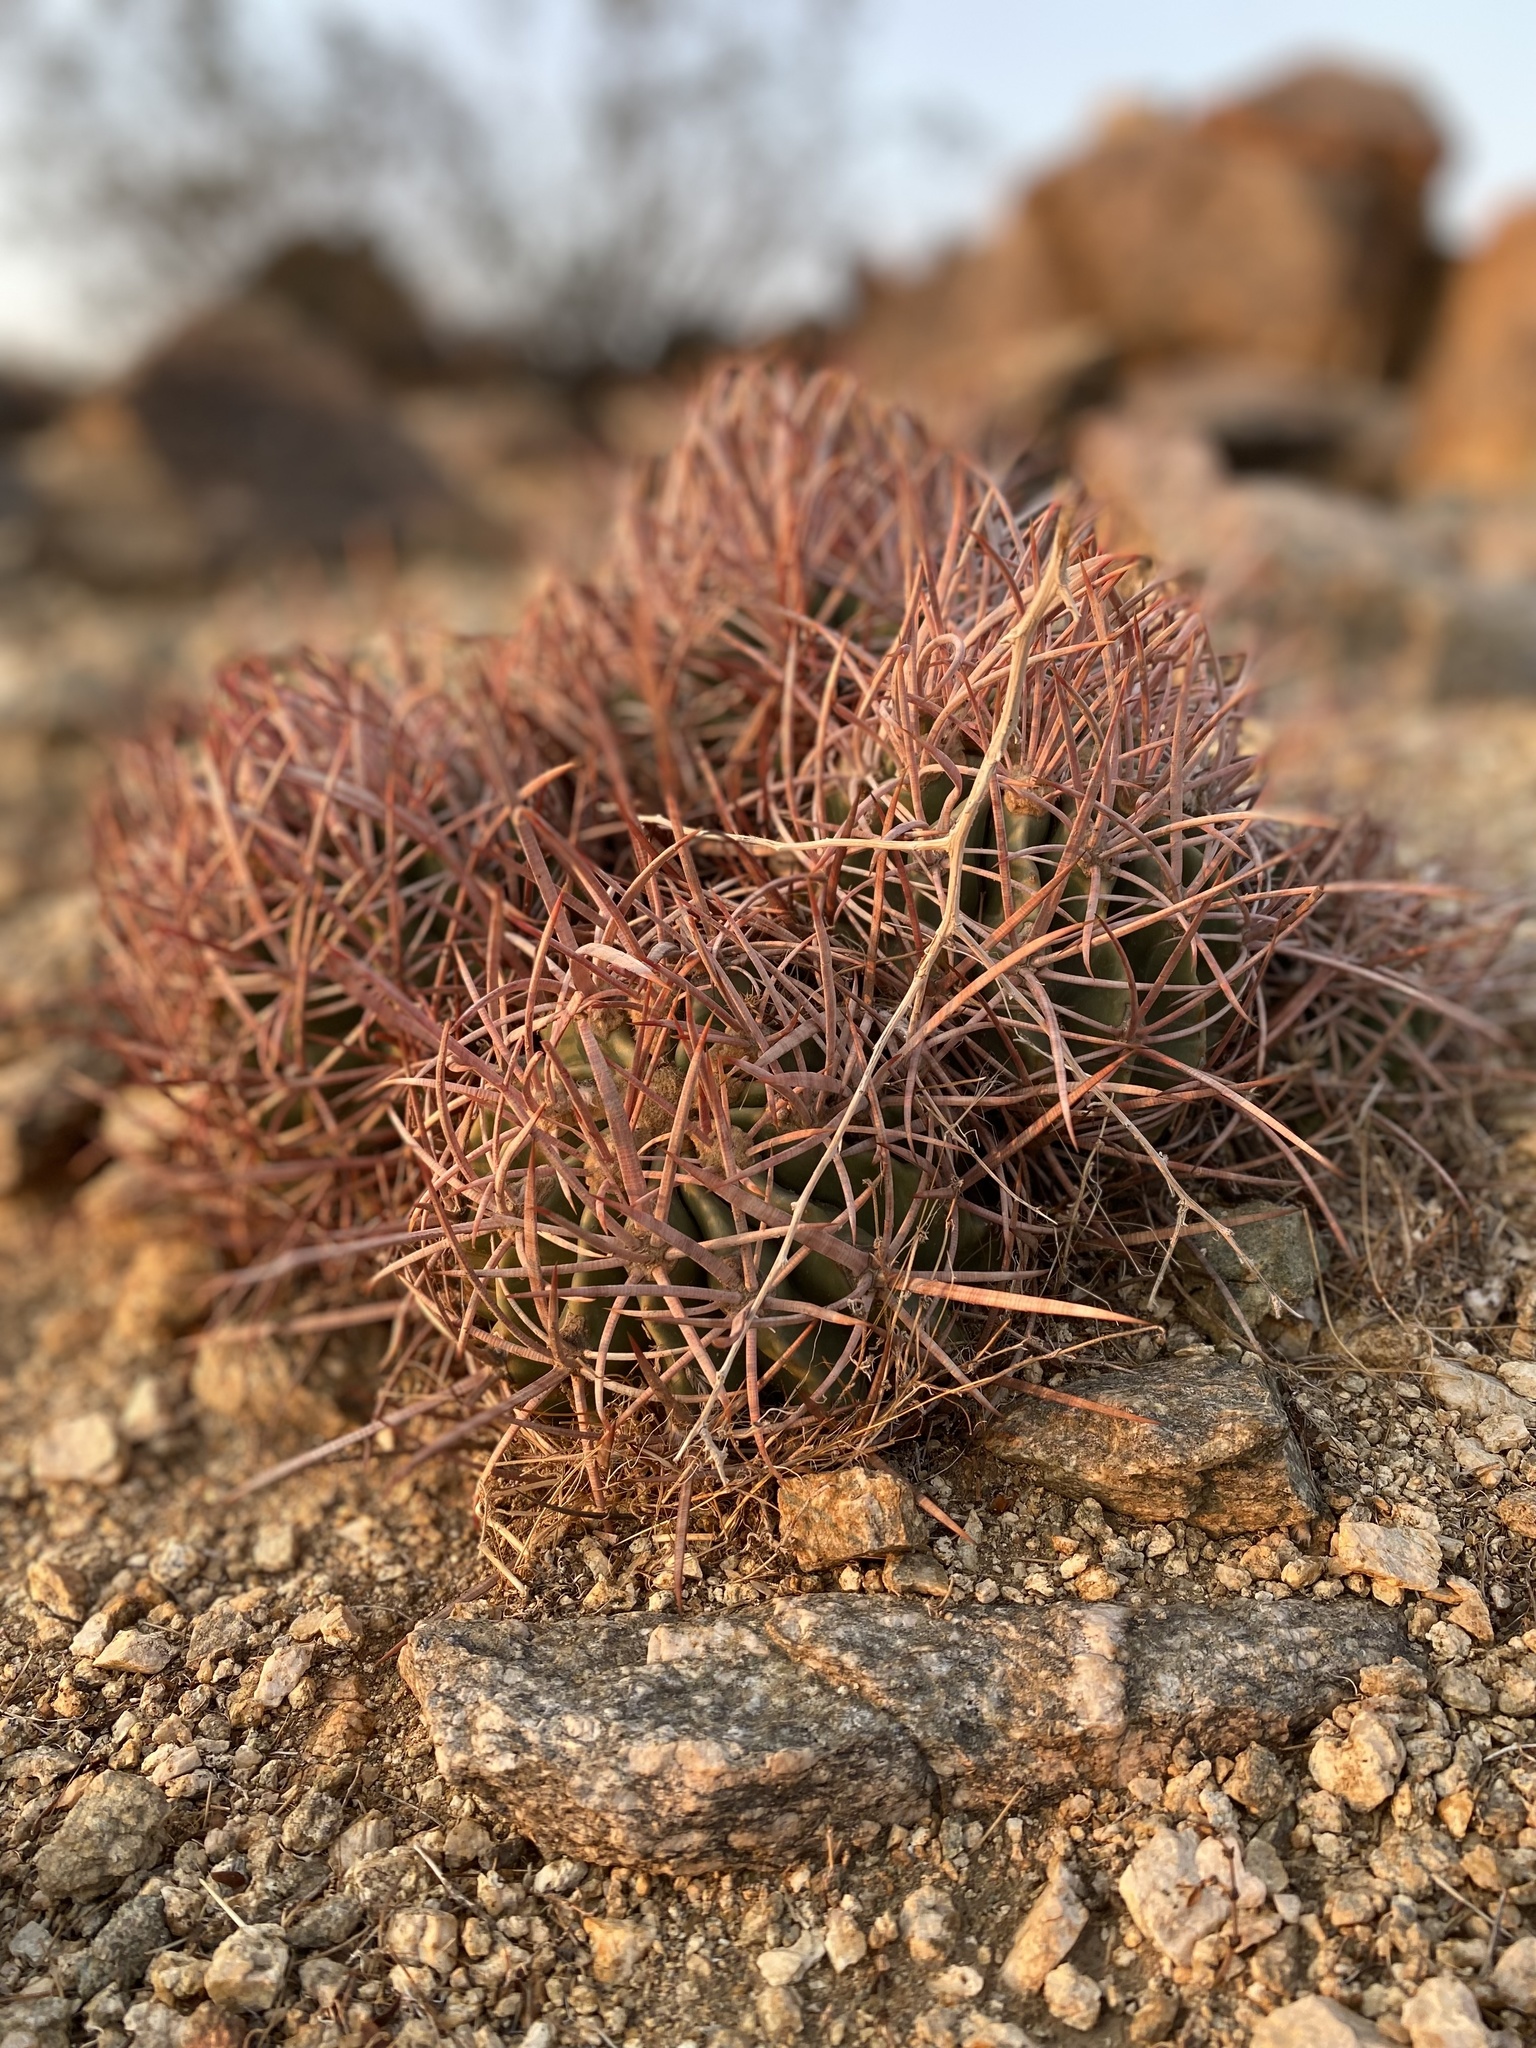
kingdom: Plantae
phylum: Tracheophyta
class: Magnoliopsida
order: Caryophyllales
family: Cactaceae
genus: Echinocactus
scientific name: Echinocactus polycephalus
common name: Cottontop cactus
